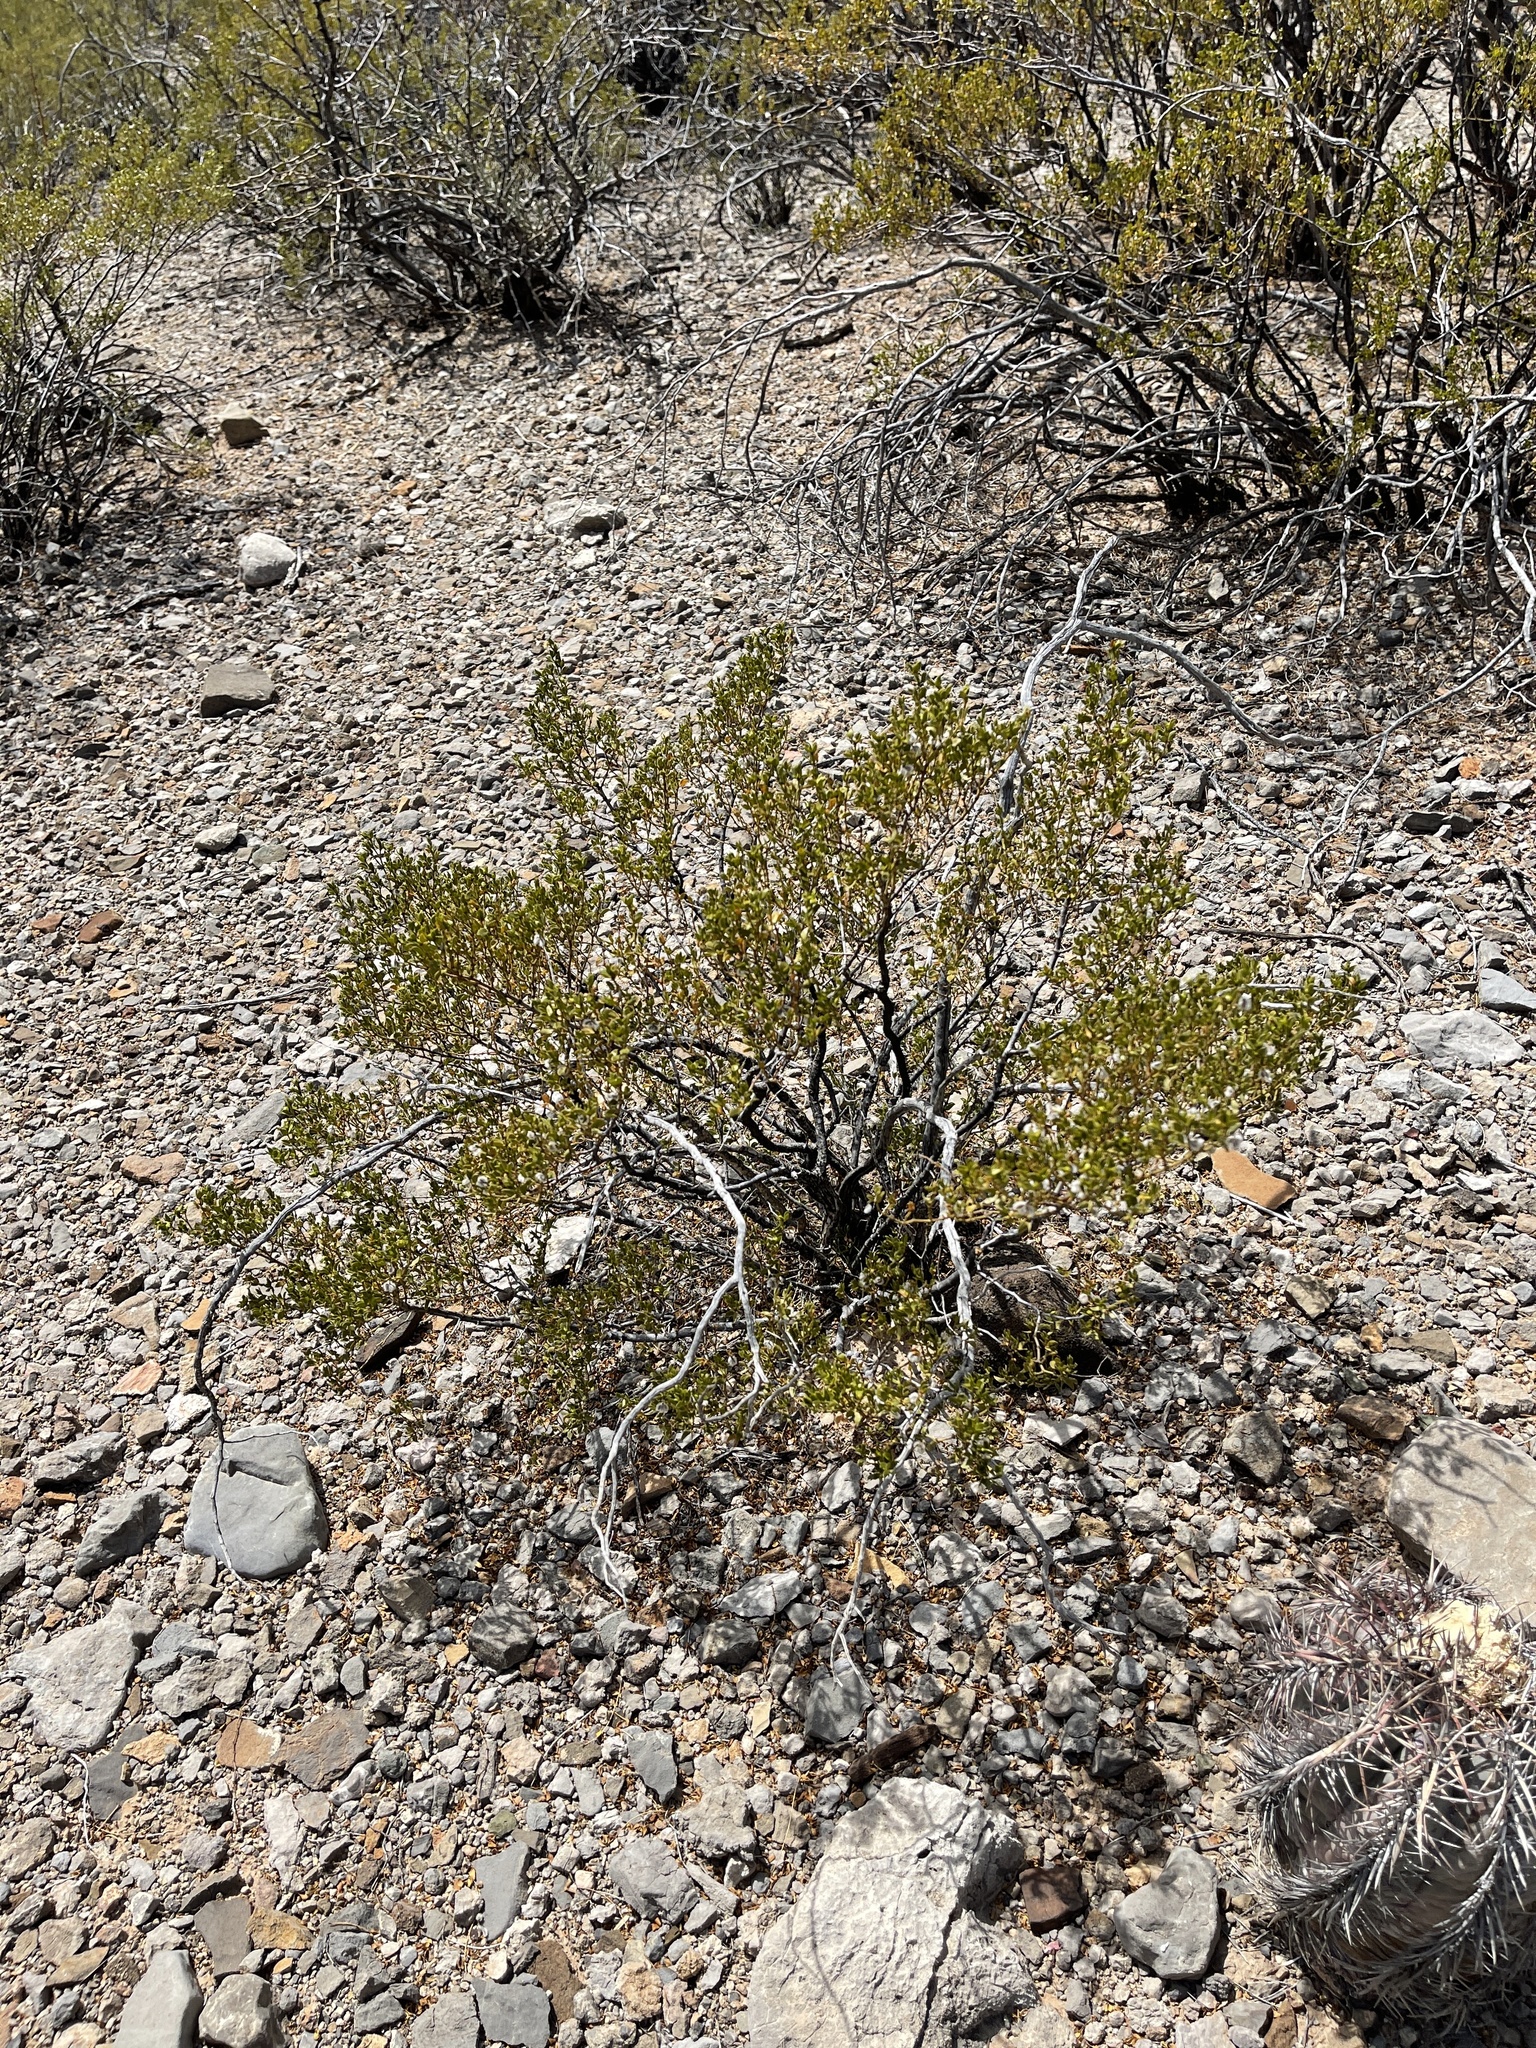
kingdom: Plantae
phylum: Tracheophyta
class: Magnoliopsida
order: Zygophyllales
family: Zygophyllaceae
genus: Larrea
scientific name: Larrea tridentata
